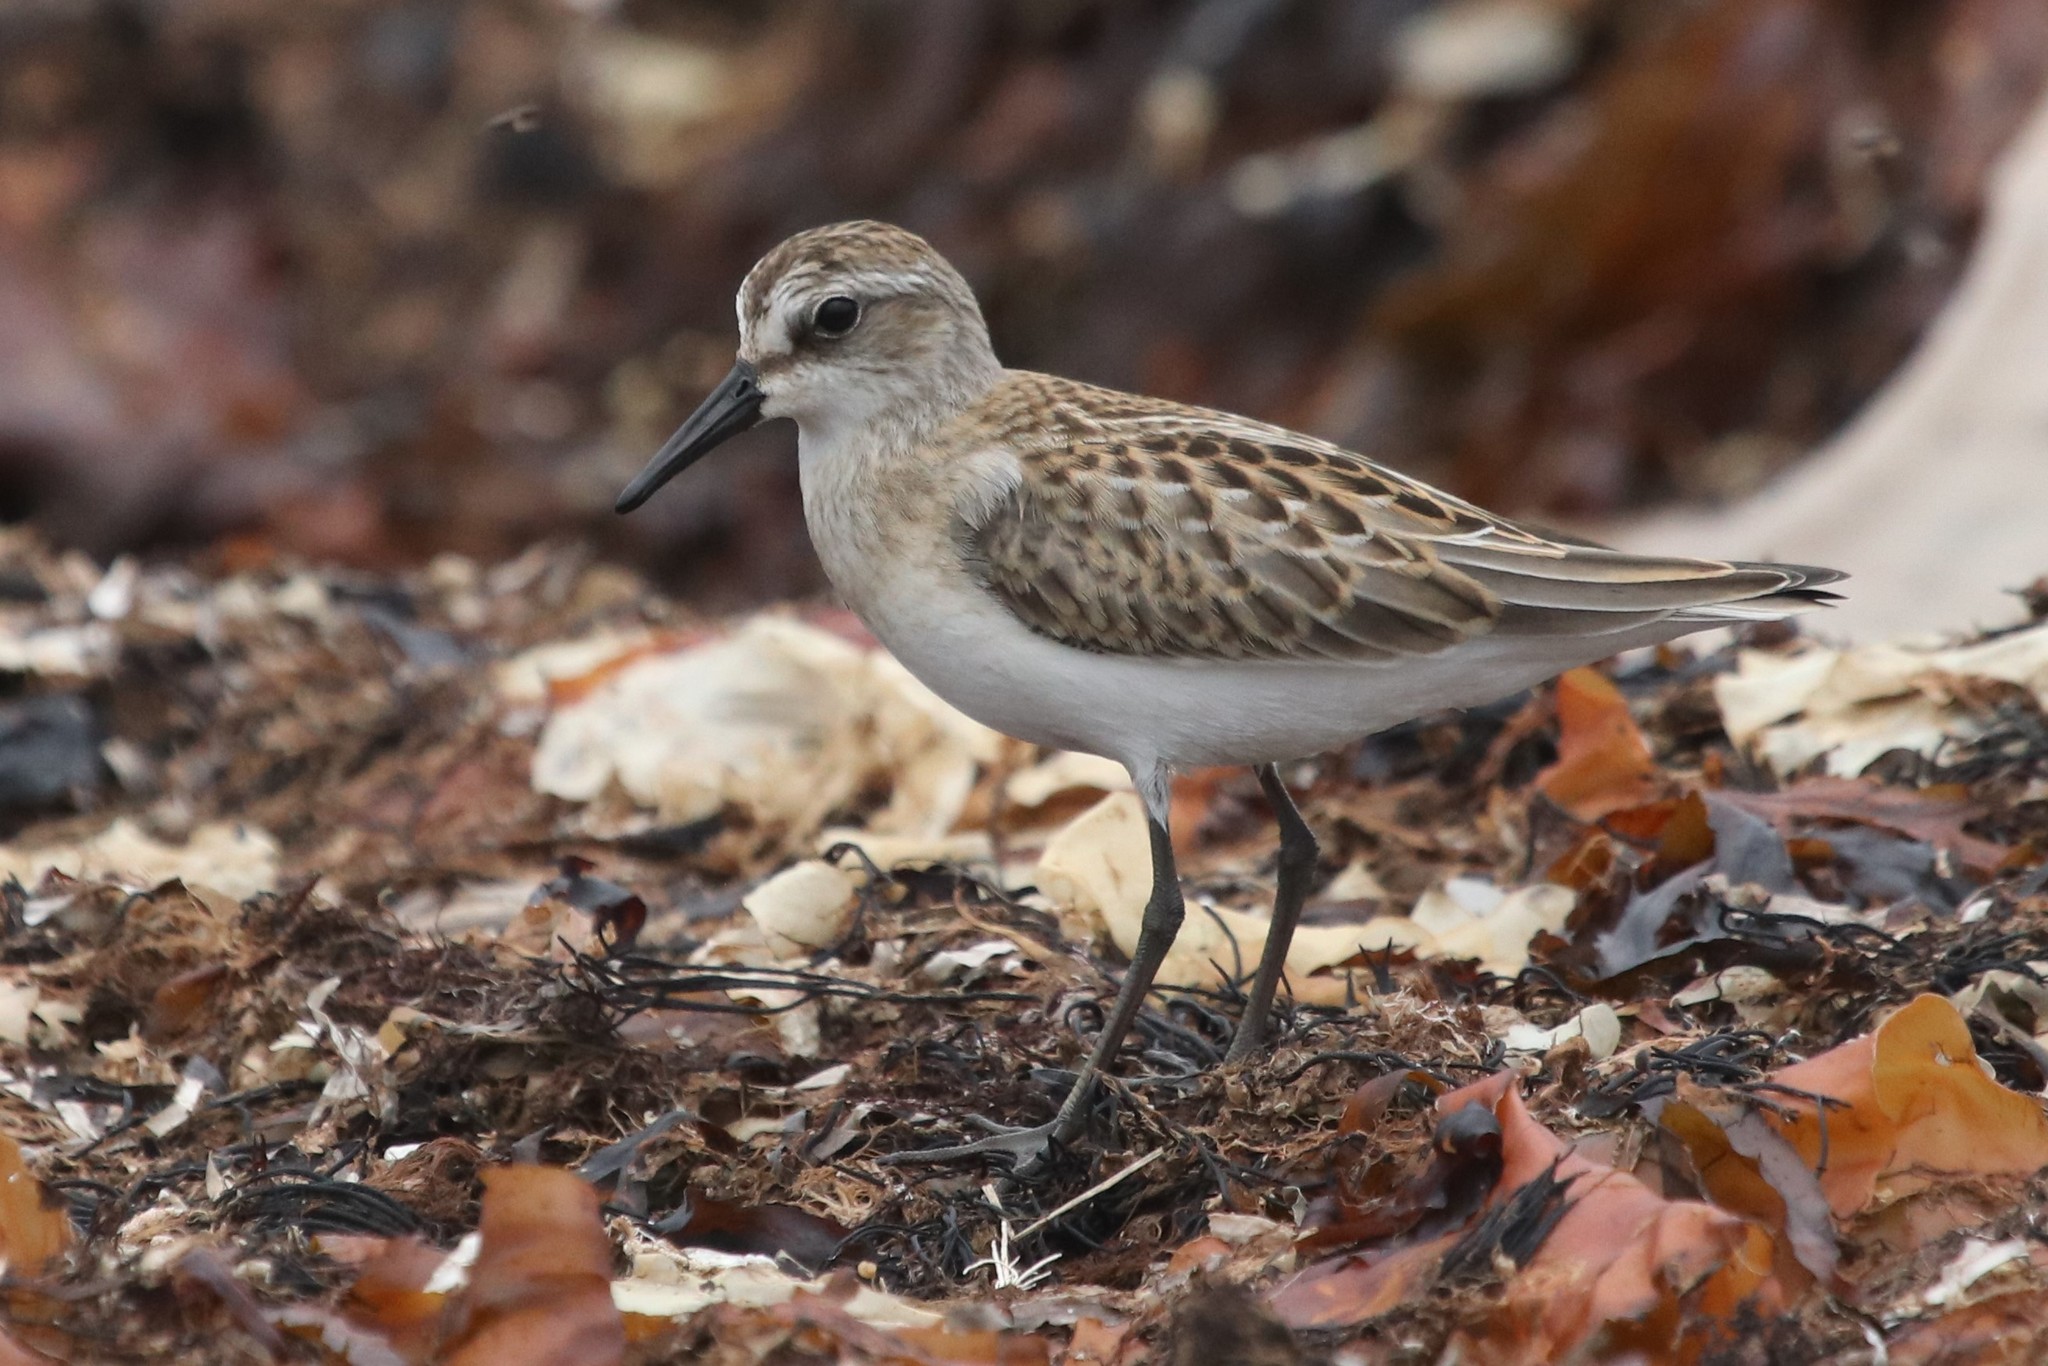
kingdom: Animalia
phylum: Chordata
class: Aves
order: Charadriiformes
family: Scolopacidae
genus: Calidris
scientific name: Calidris pusilla
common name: Semipalmated sandpiper
